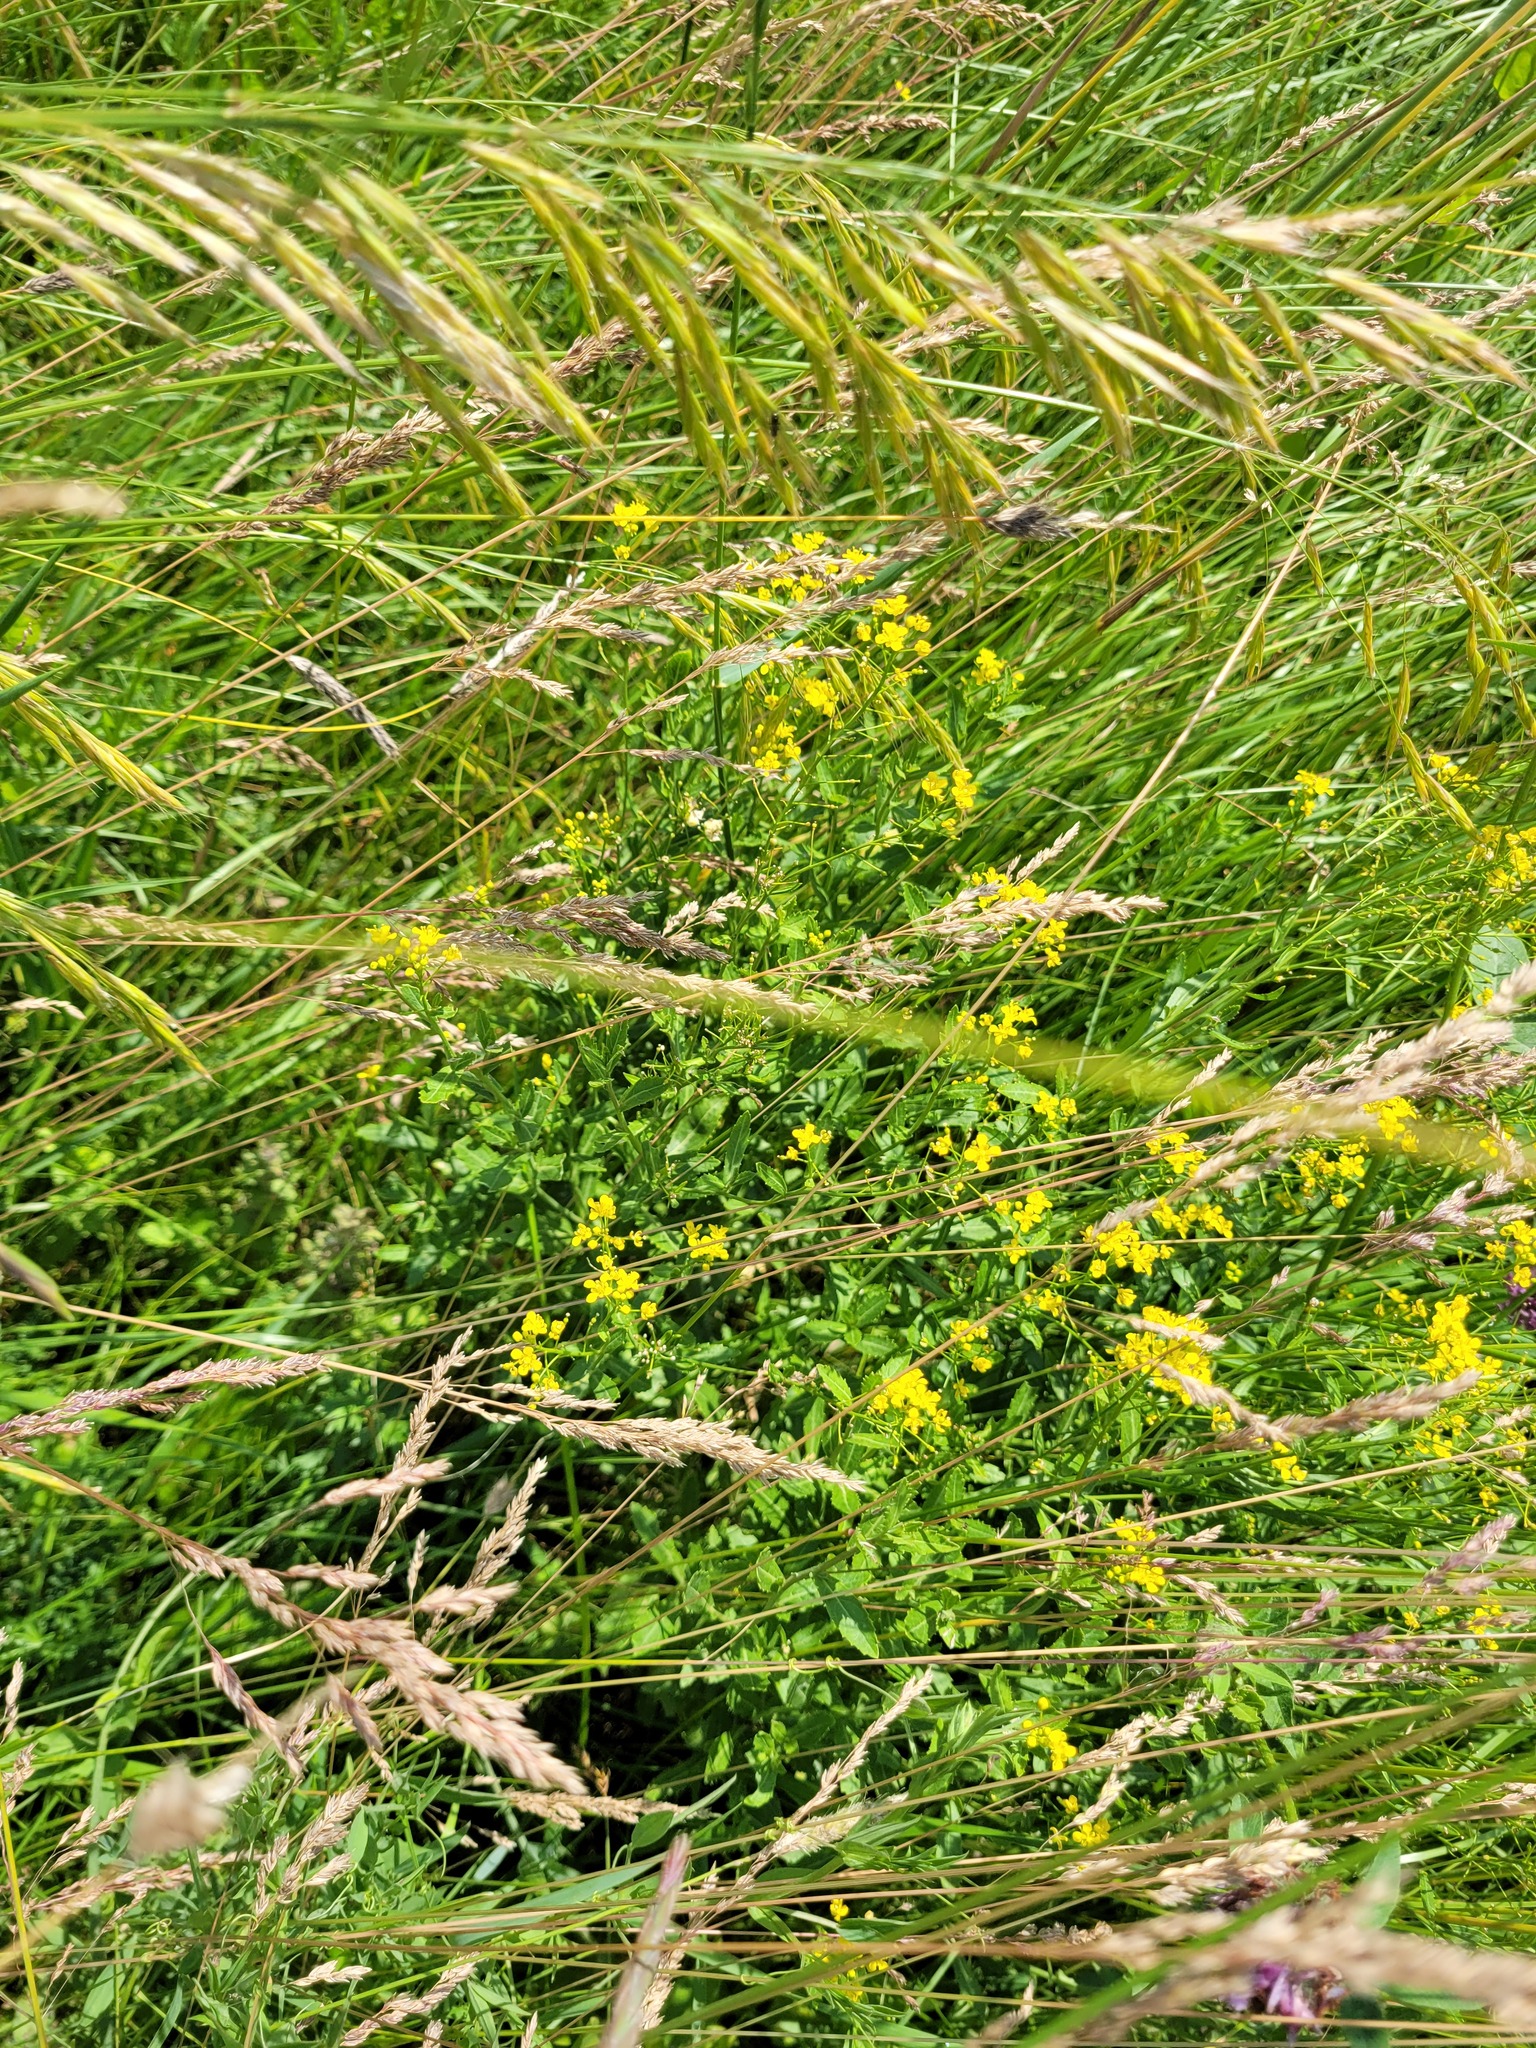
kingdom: Plantae
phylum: Tracheophyta
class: Magnoliopsida
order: Brassicales
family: Brassicaceae
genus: Rorippa
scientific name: Rorippa austriaca
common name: Austrian yellow-cress
